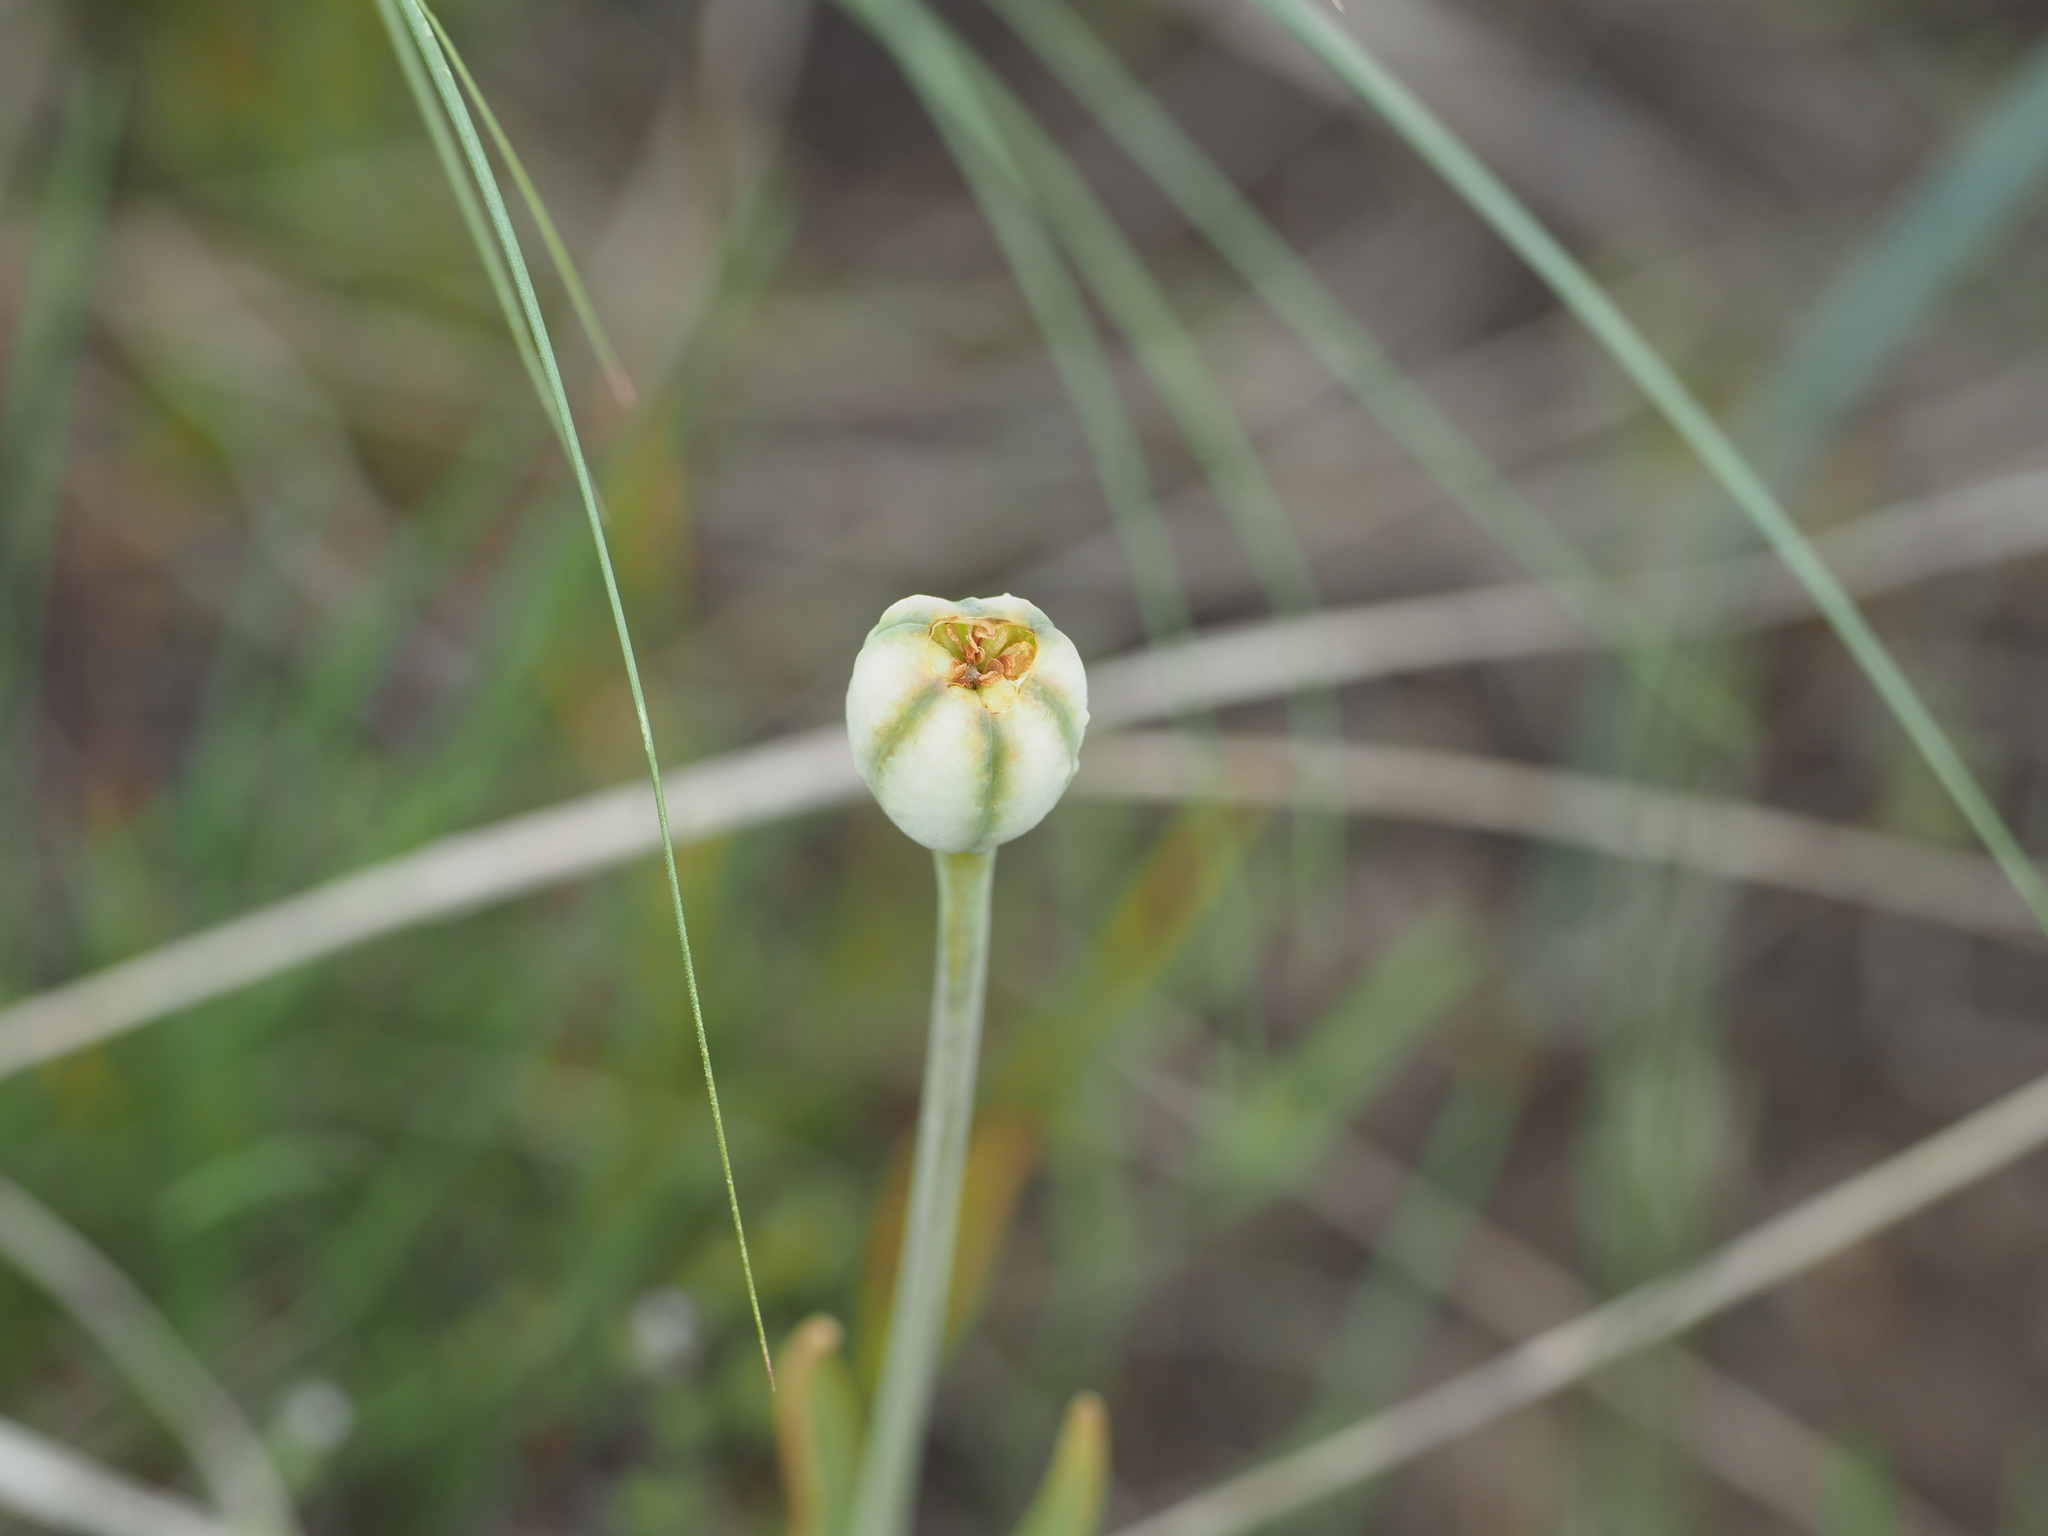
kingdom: Plantae
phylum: Tracheophyta
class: Liliopsida
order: Liliales
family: Liliaceae
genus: Fritillaria
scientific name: Fritillaria pudica
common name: Yellow fritillary
